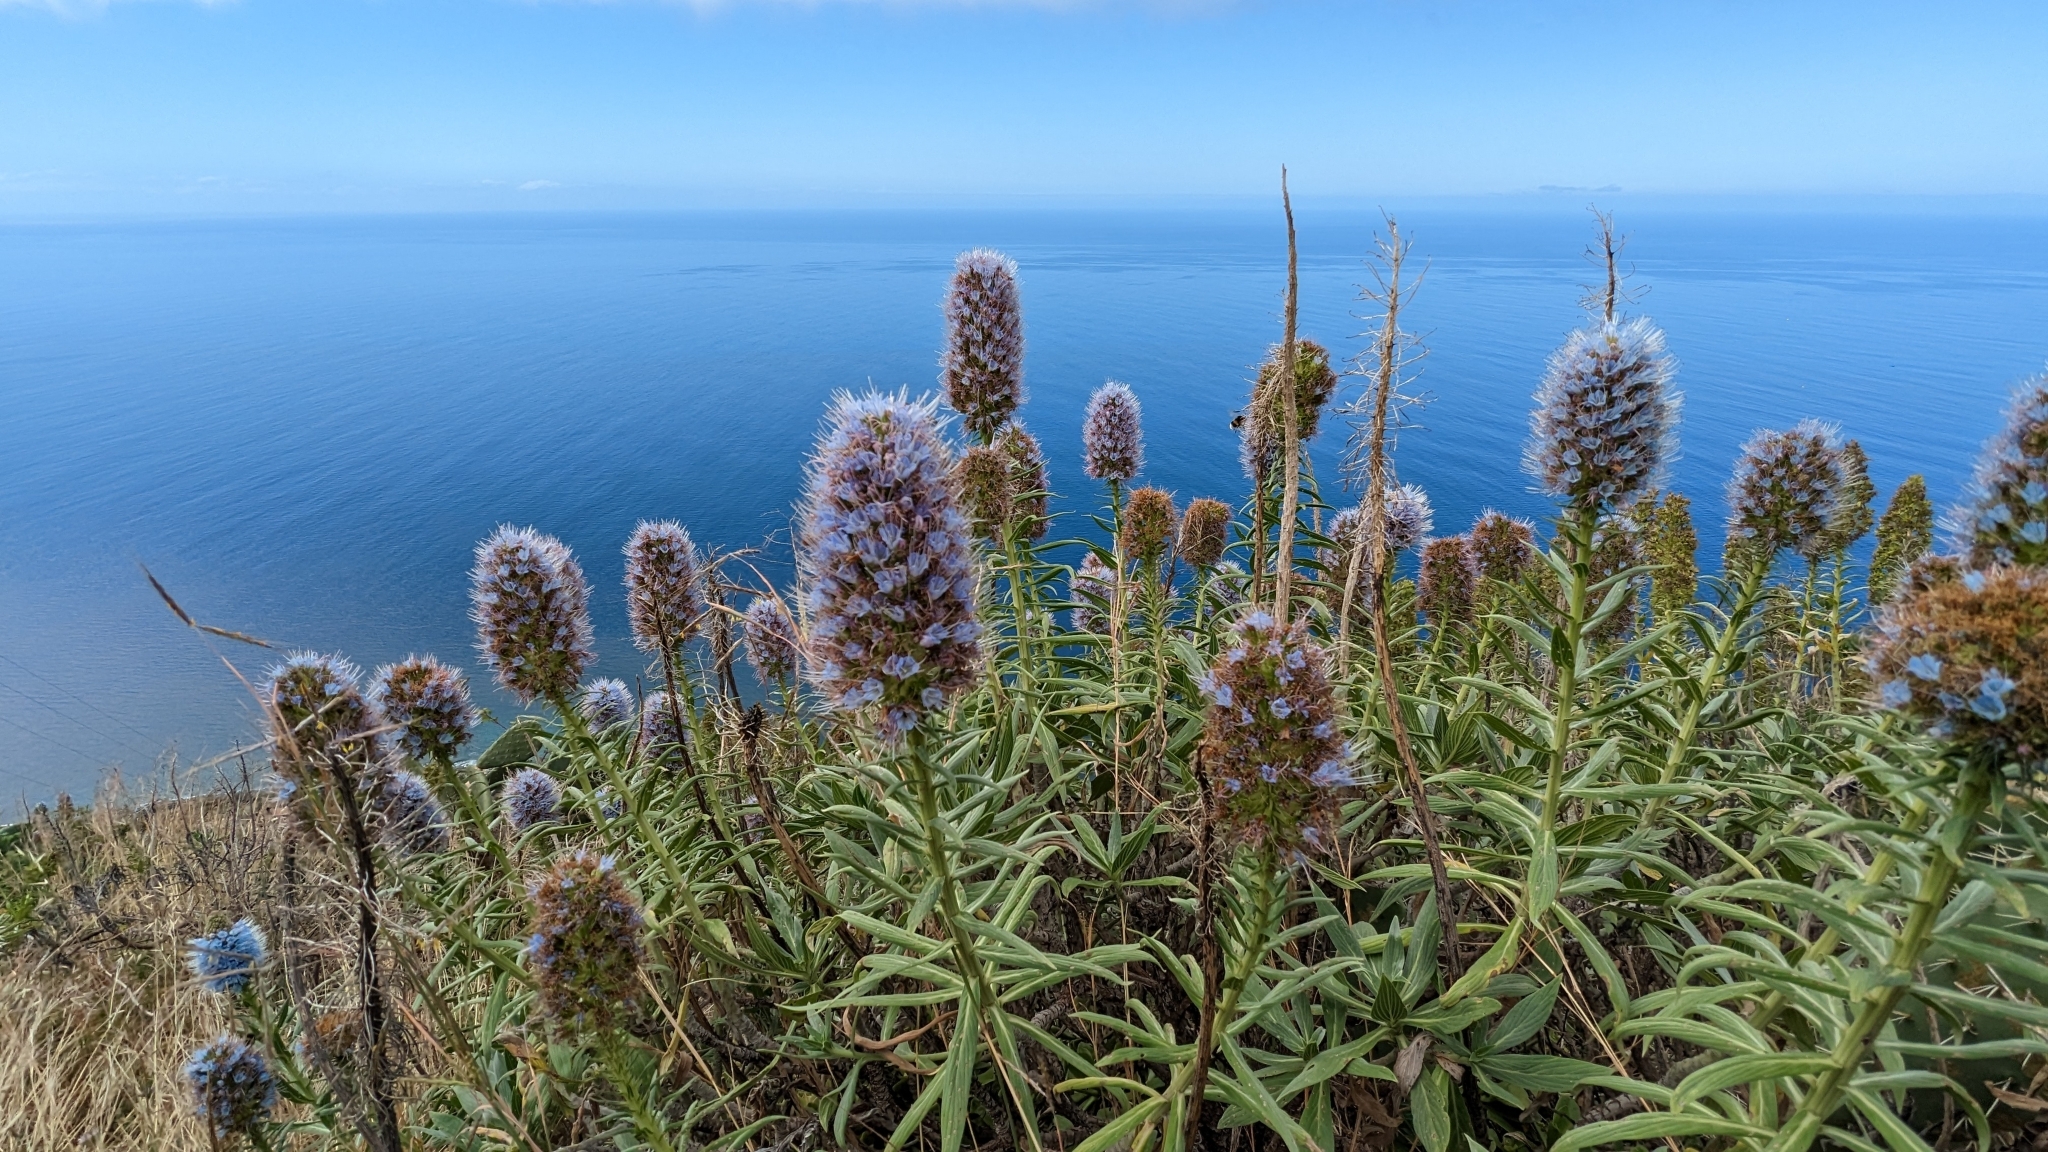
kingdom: Plantae
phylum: Tracheophyta
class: Magnoliopsida
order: Boraginales
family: Boraginaceae
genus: Echium
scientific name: Echium nervosum
